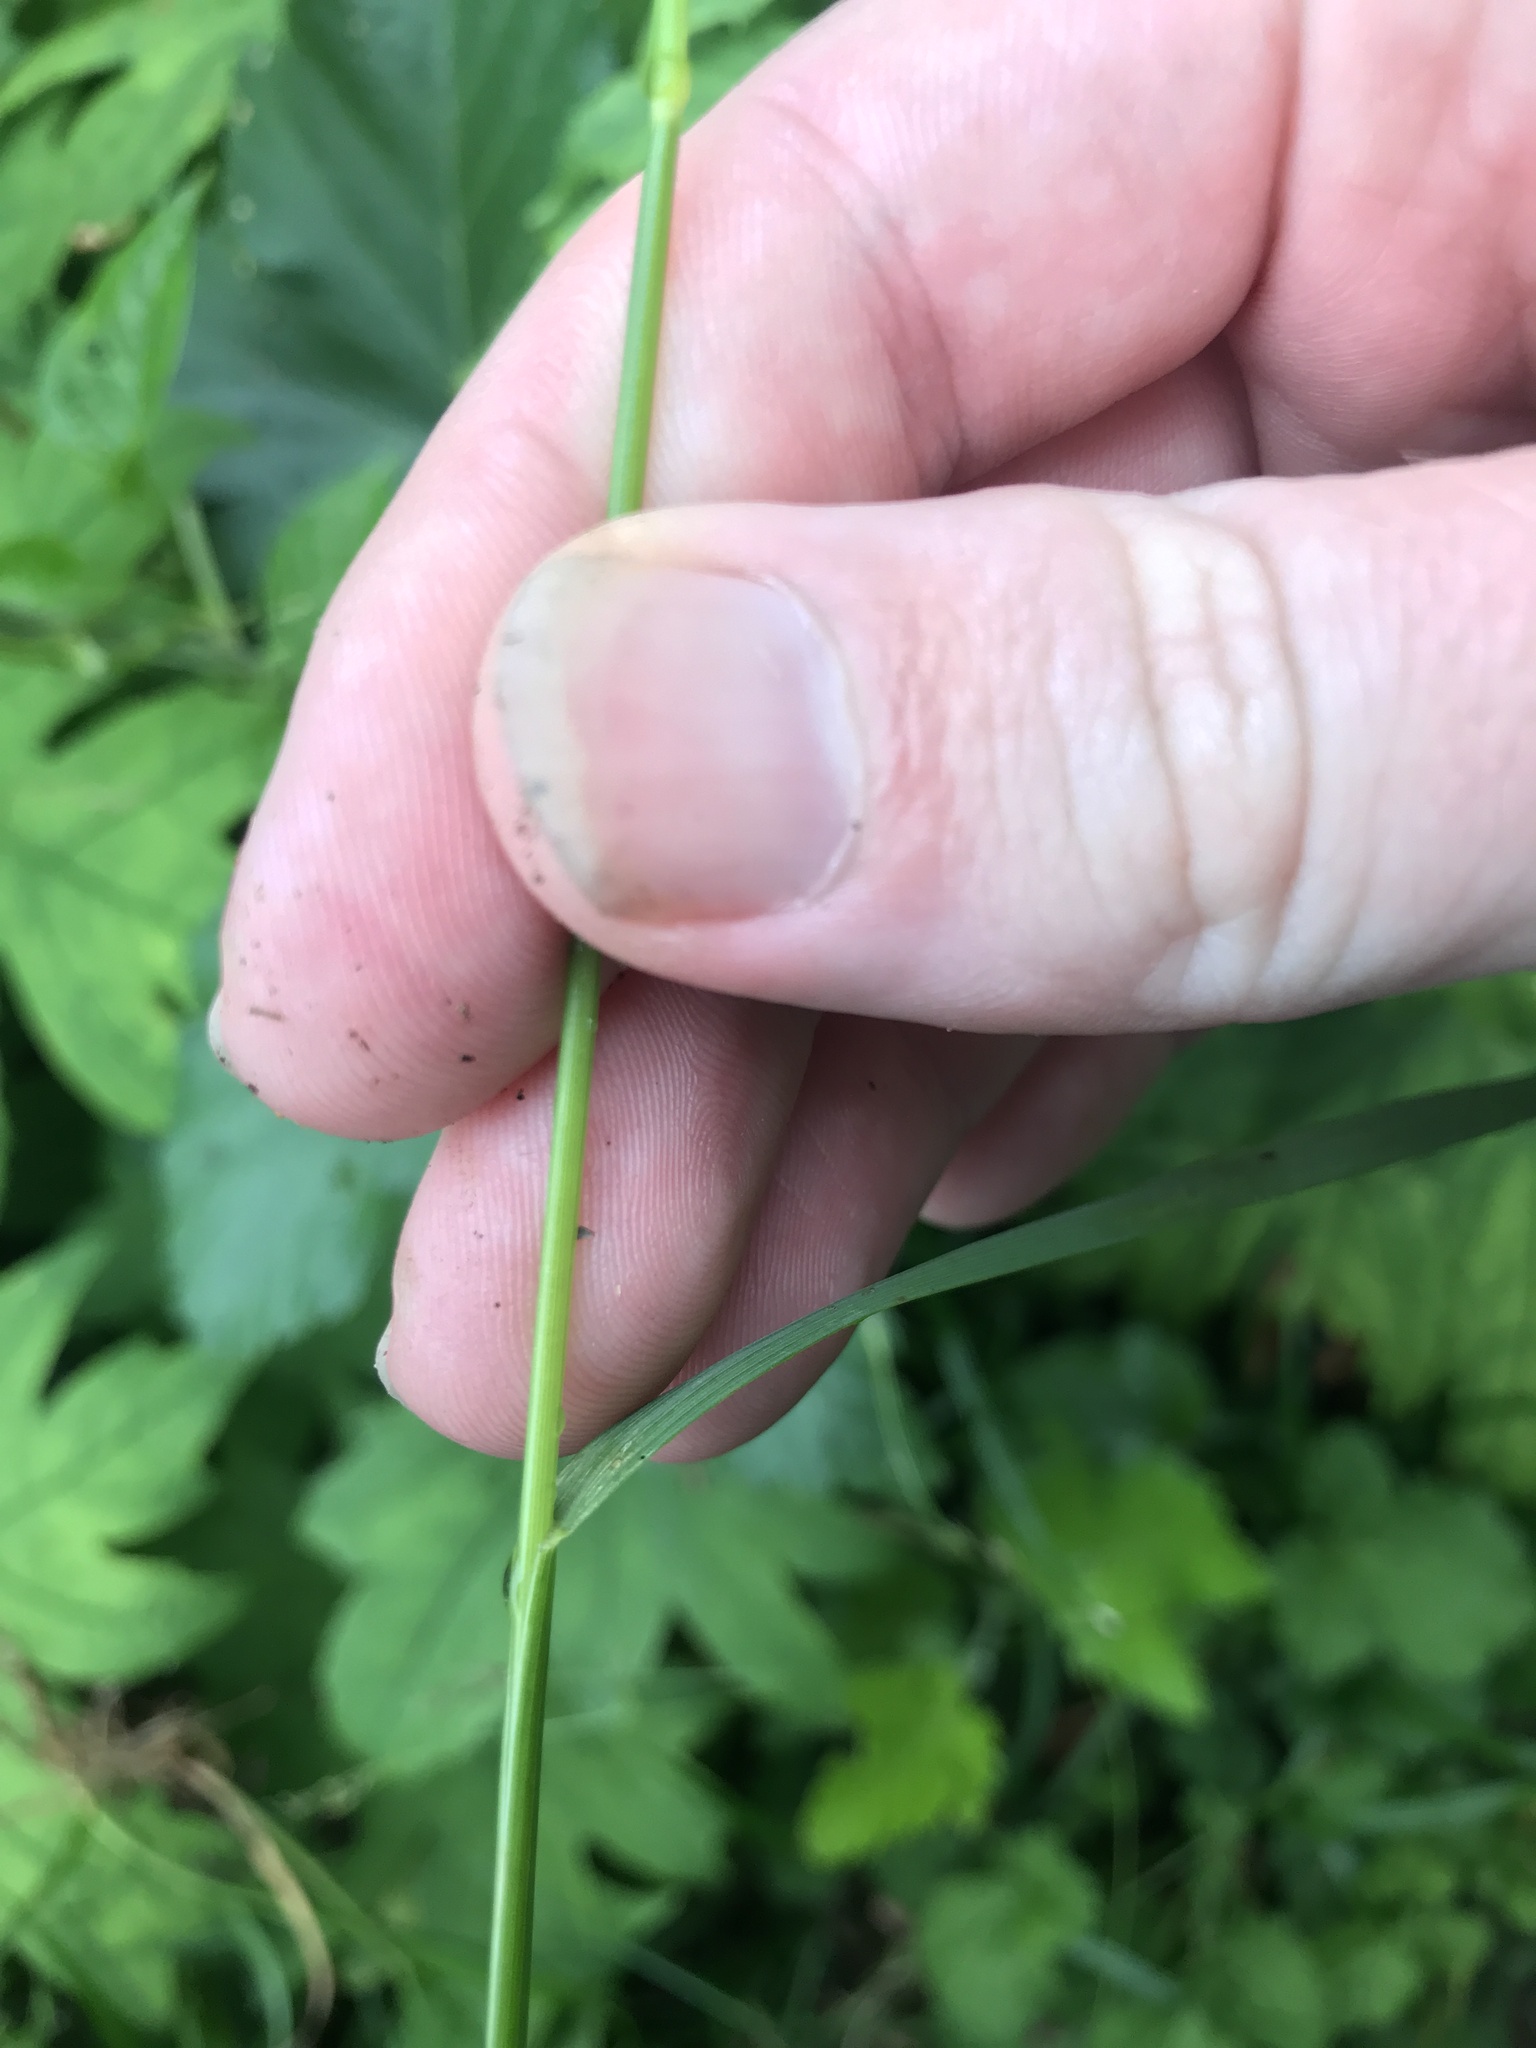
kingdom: Plantae
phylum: Tracheophyta
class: Liliopsida
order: Poales
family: Poaceae
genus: Festuca
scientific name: Festuca parvigluma
